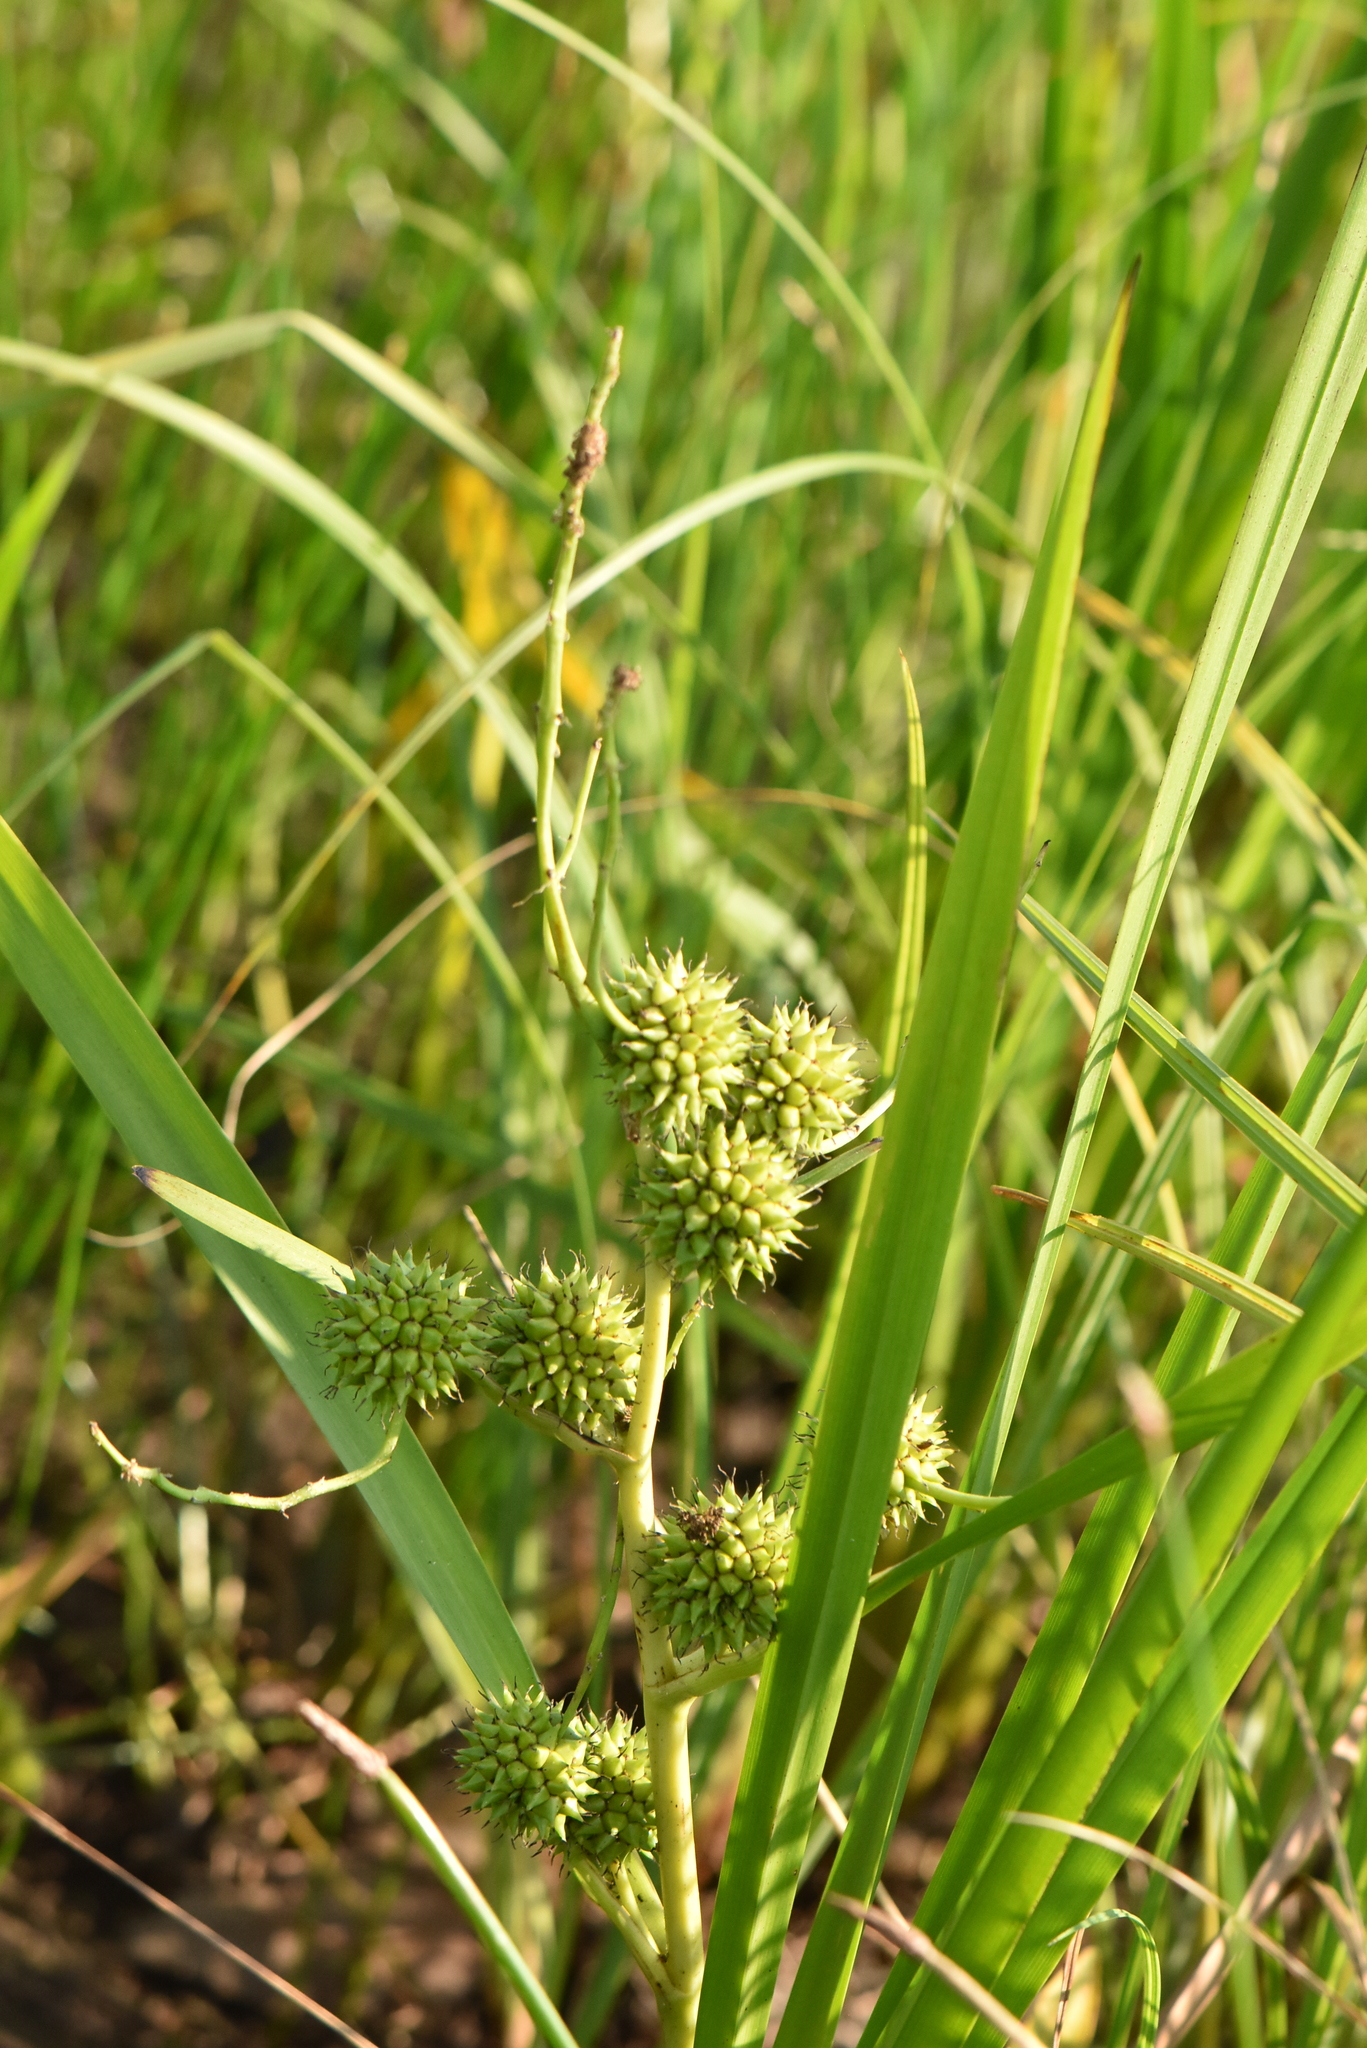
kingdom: Plantae
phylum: Tracheophyta
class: Liliopsida
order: Poales
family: Typhaceae
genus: Sparganium
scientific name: Sparganium erectum
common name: Branched bur-reed
